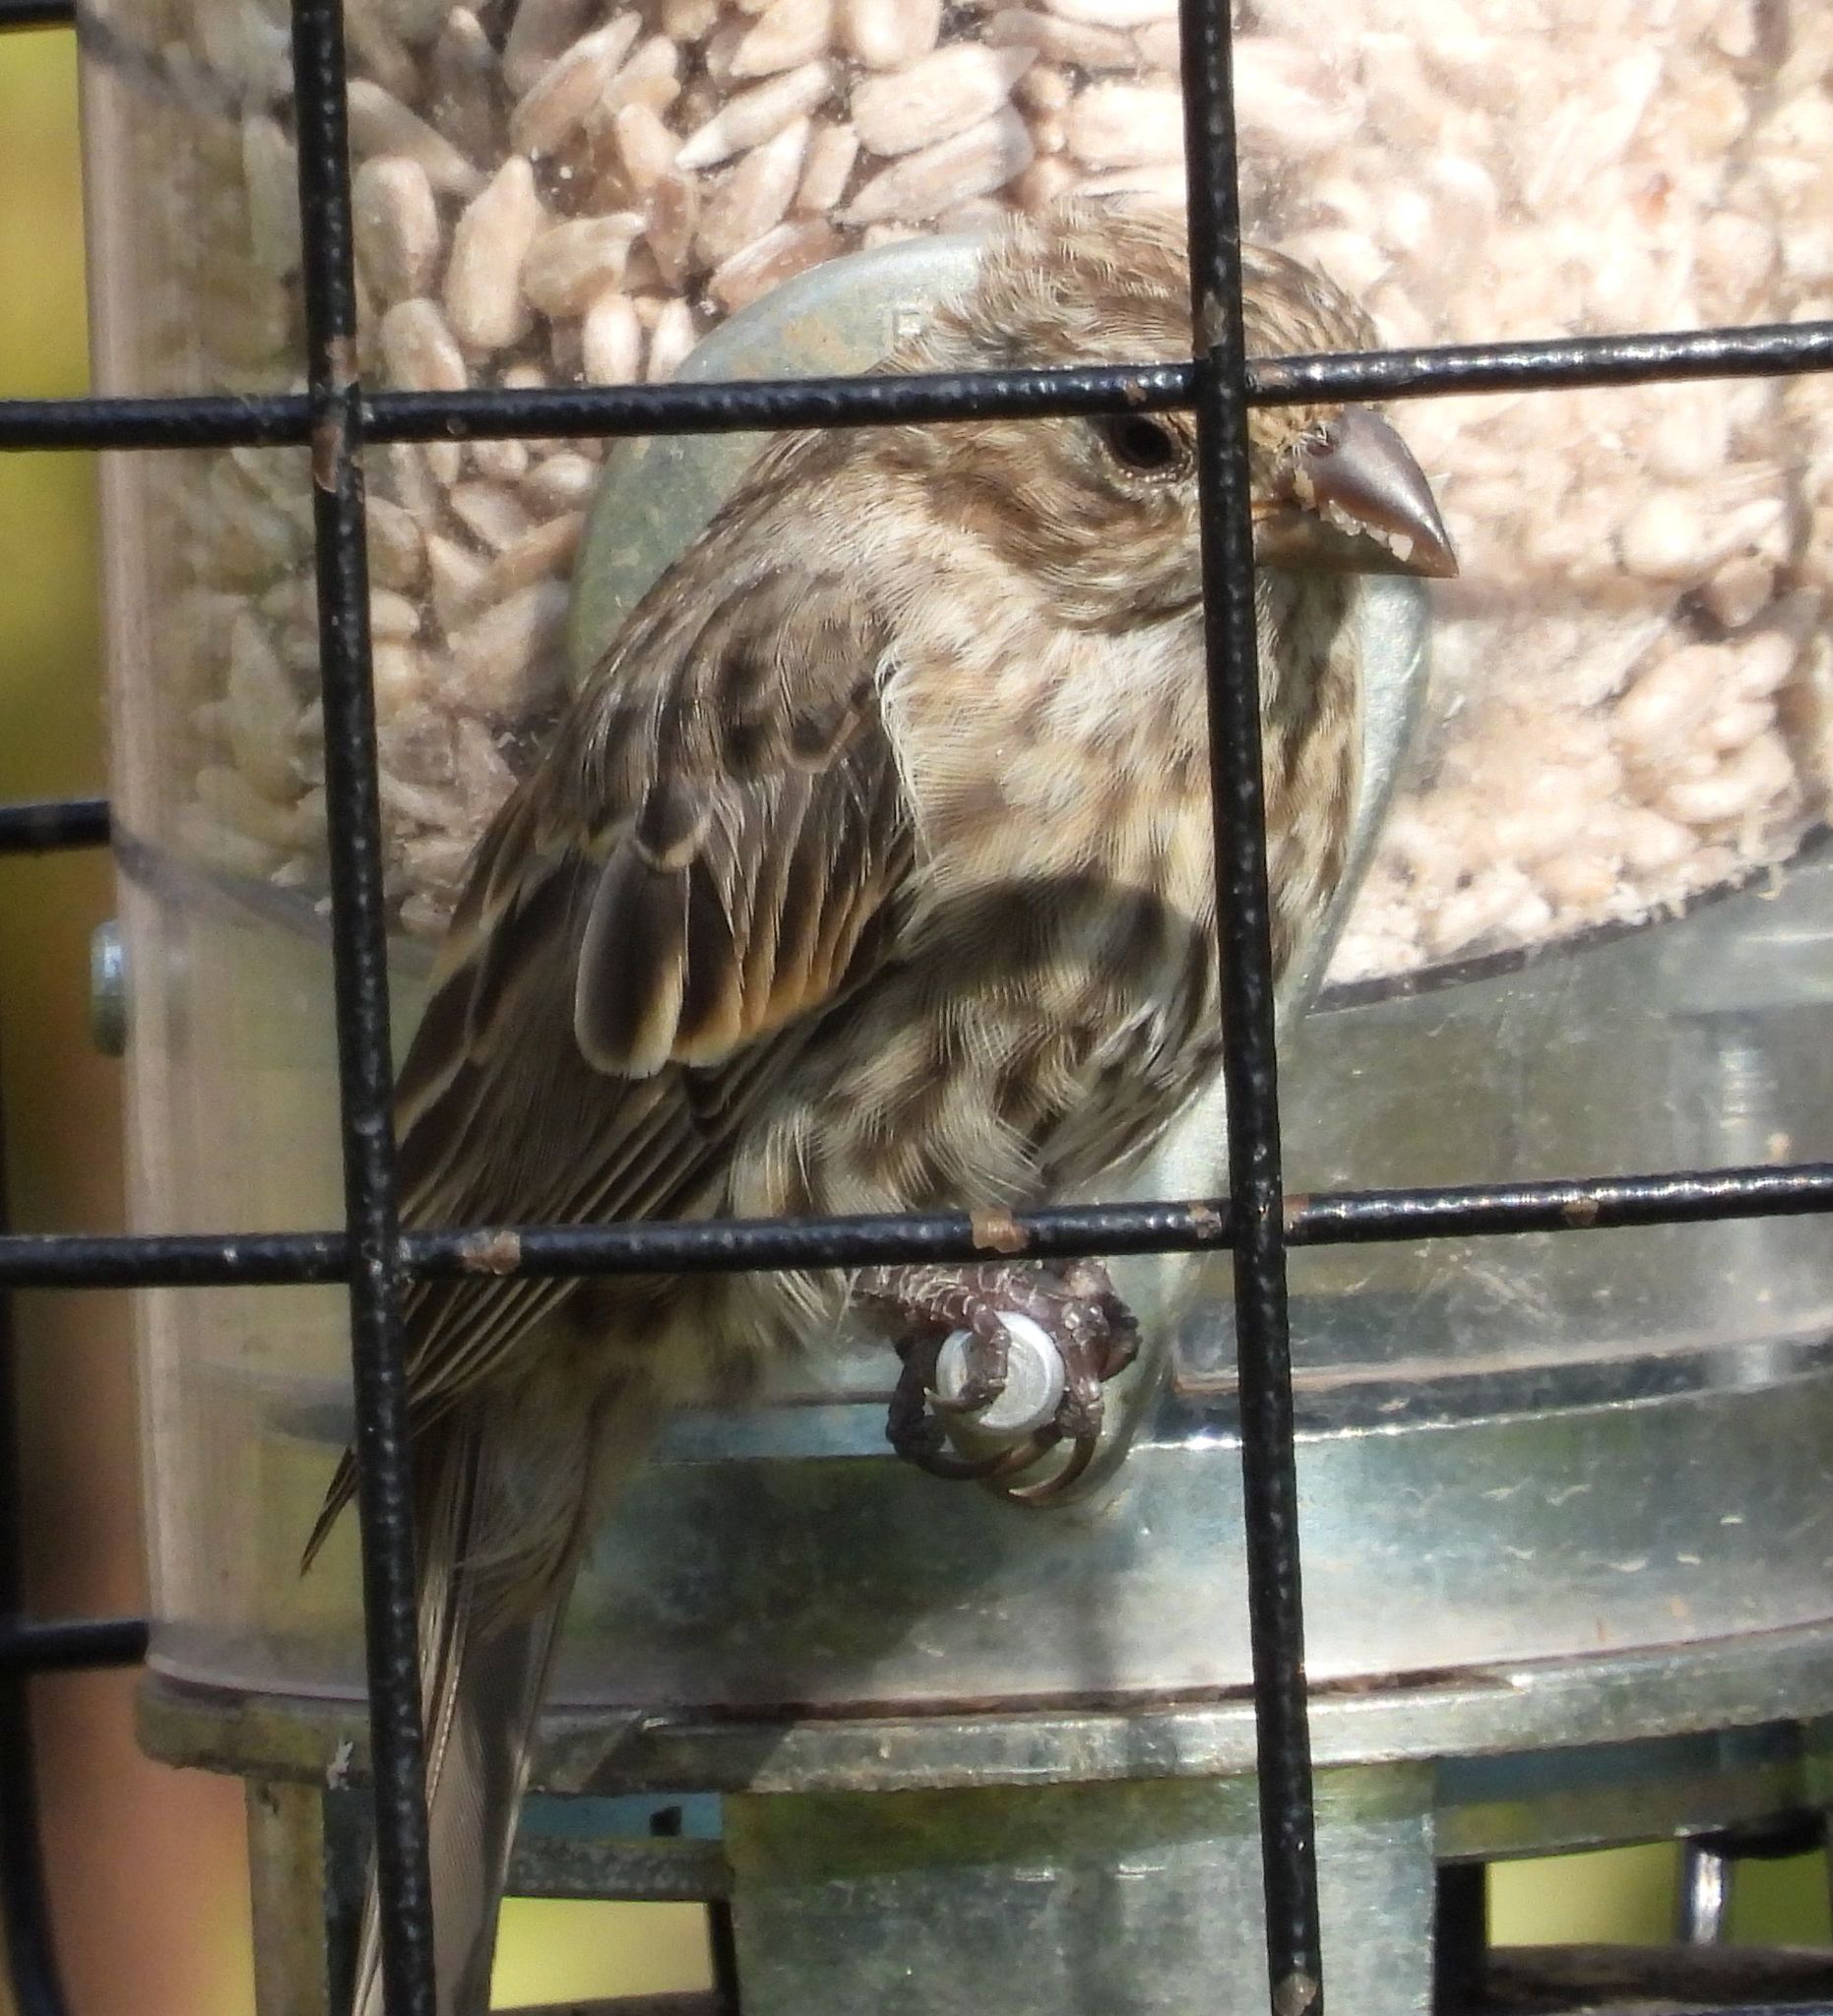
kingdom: Animalia
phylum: Chordata
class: Aves
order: Passeriformes
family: Fringillidae
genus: Haemorhous
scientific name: Haemorhous mexicanus
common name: House finch
